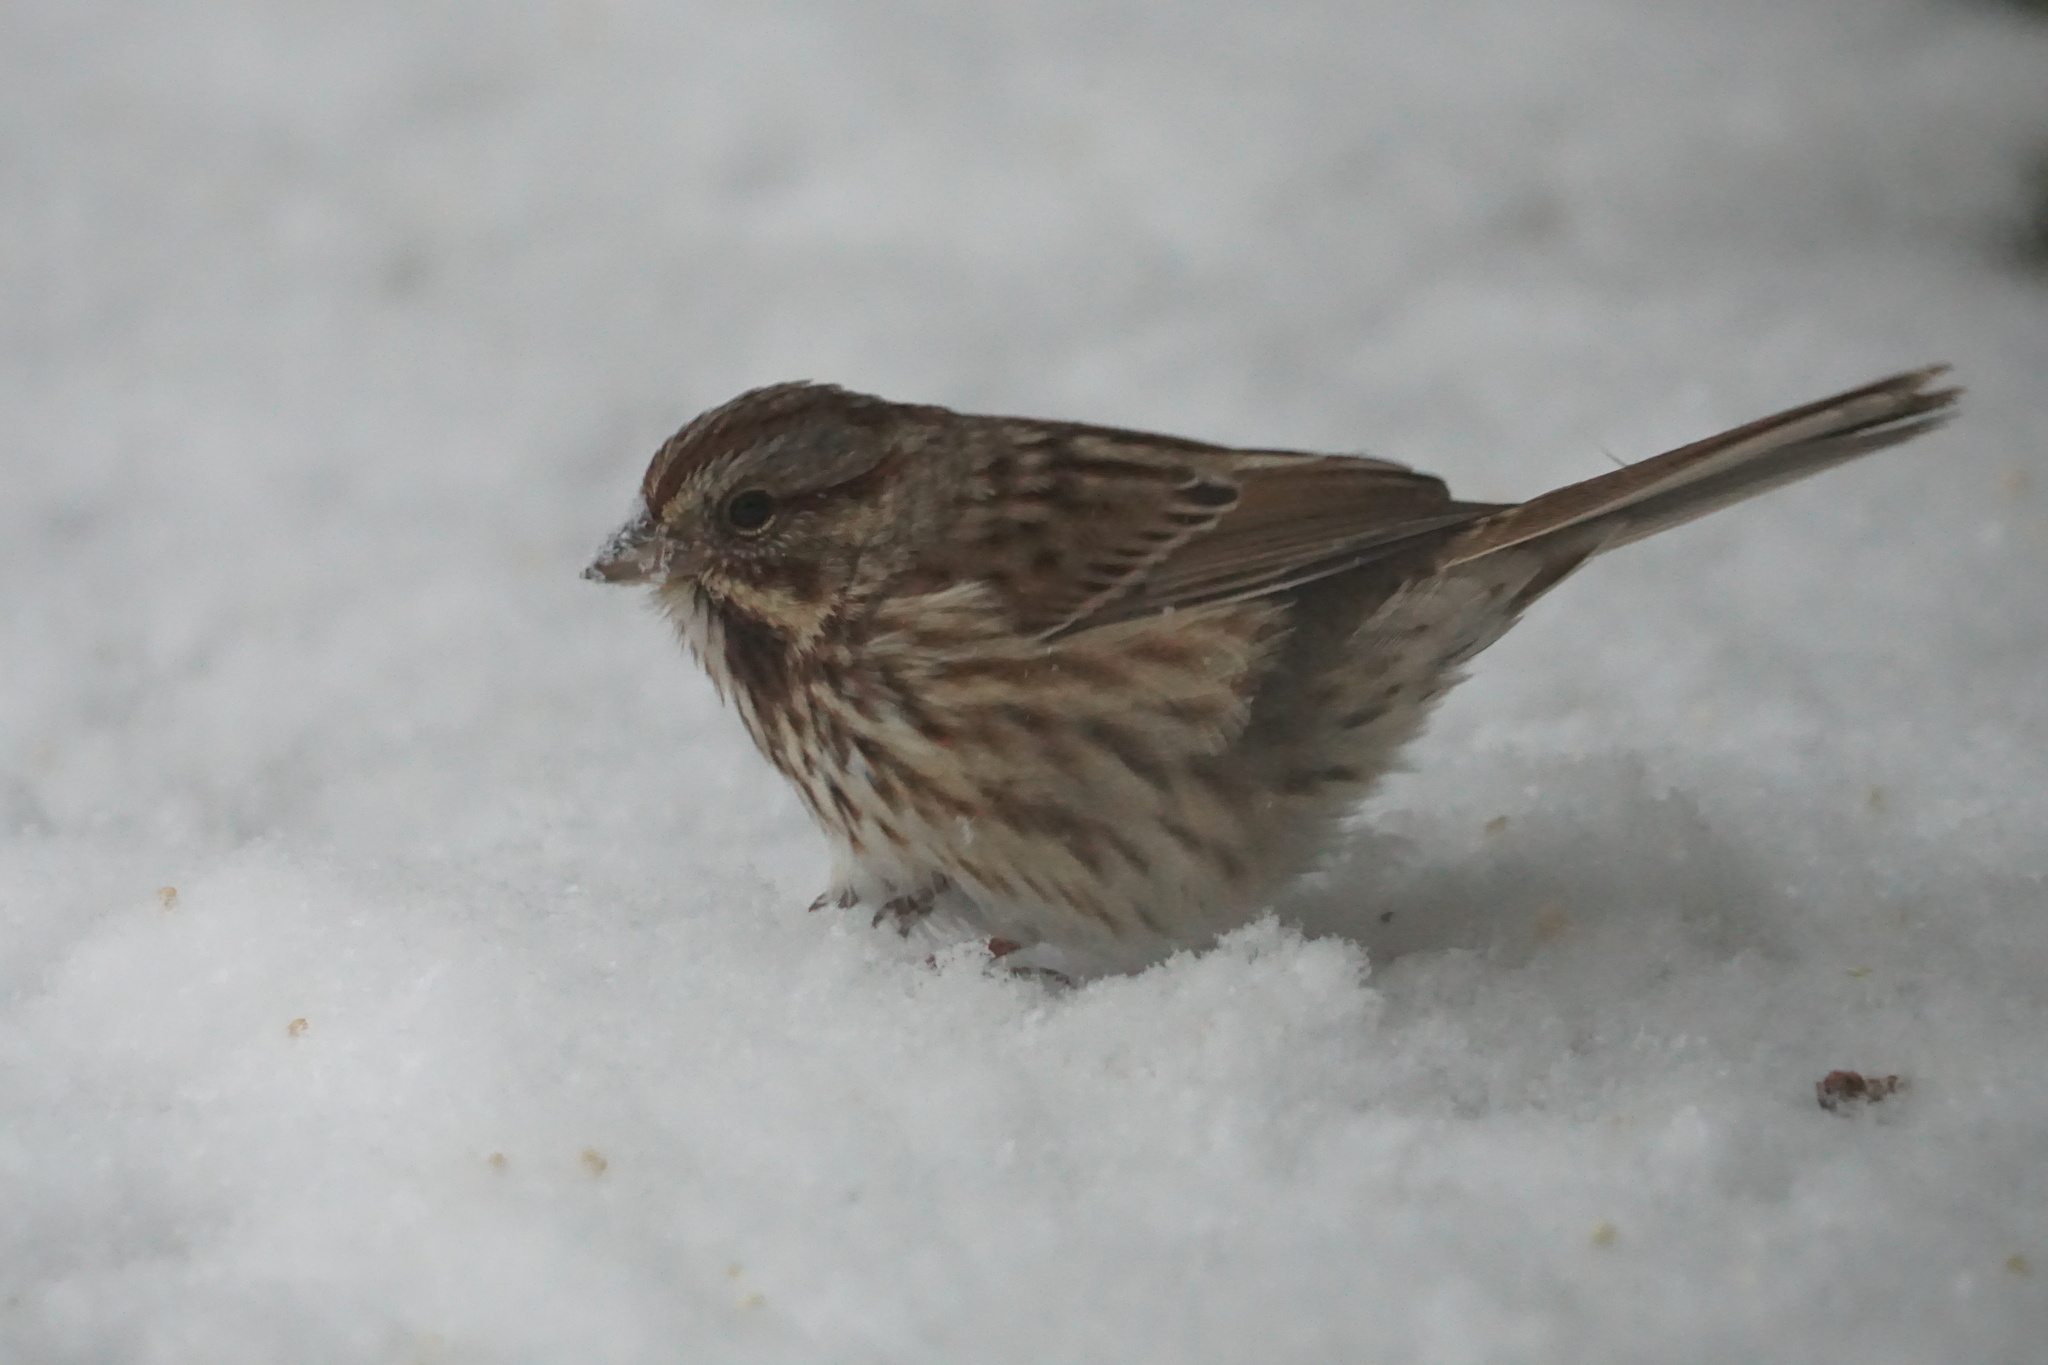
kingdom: Animalia
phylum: Chordata
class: Aves
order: Passeriformes
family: Passerellidae
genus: Melospiza
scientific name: Melospiza melodia
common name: Song sparrow
